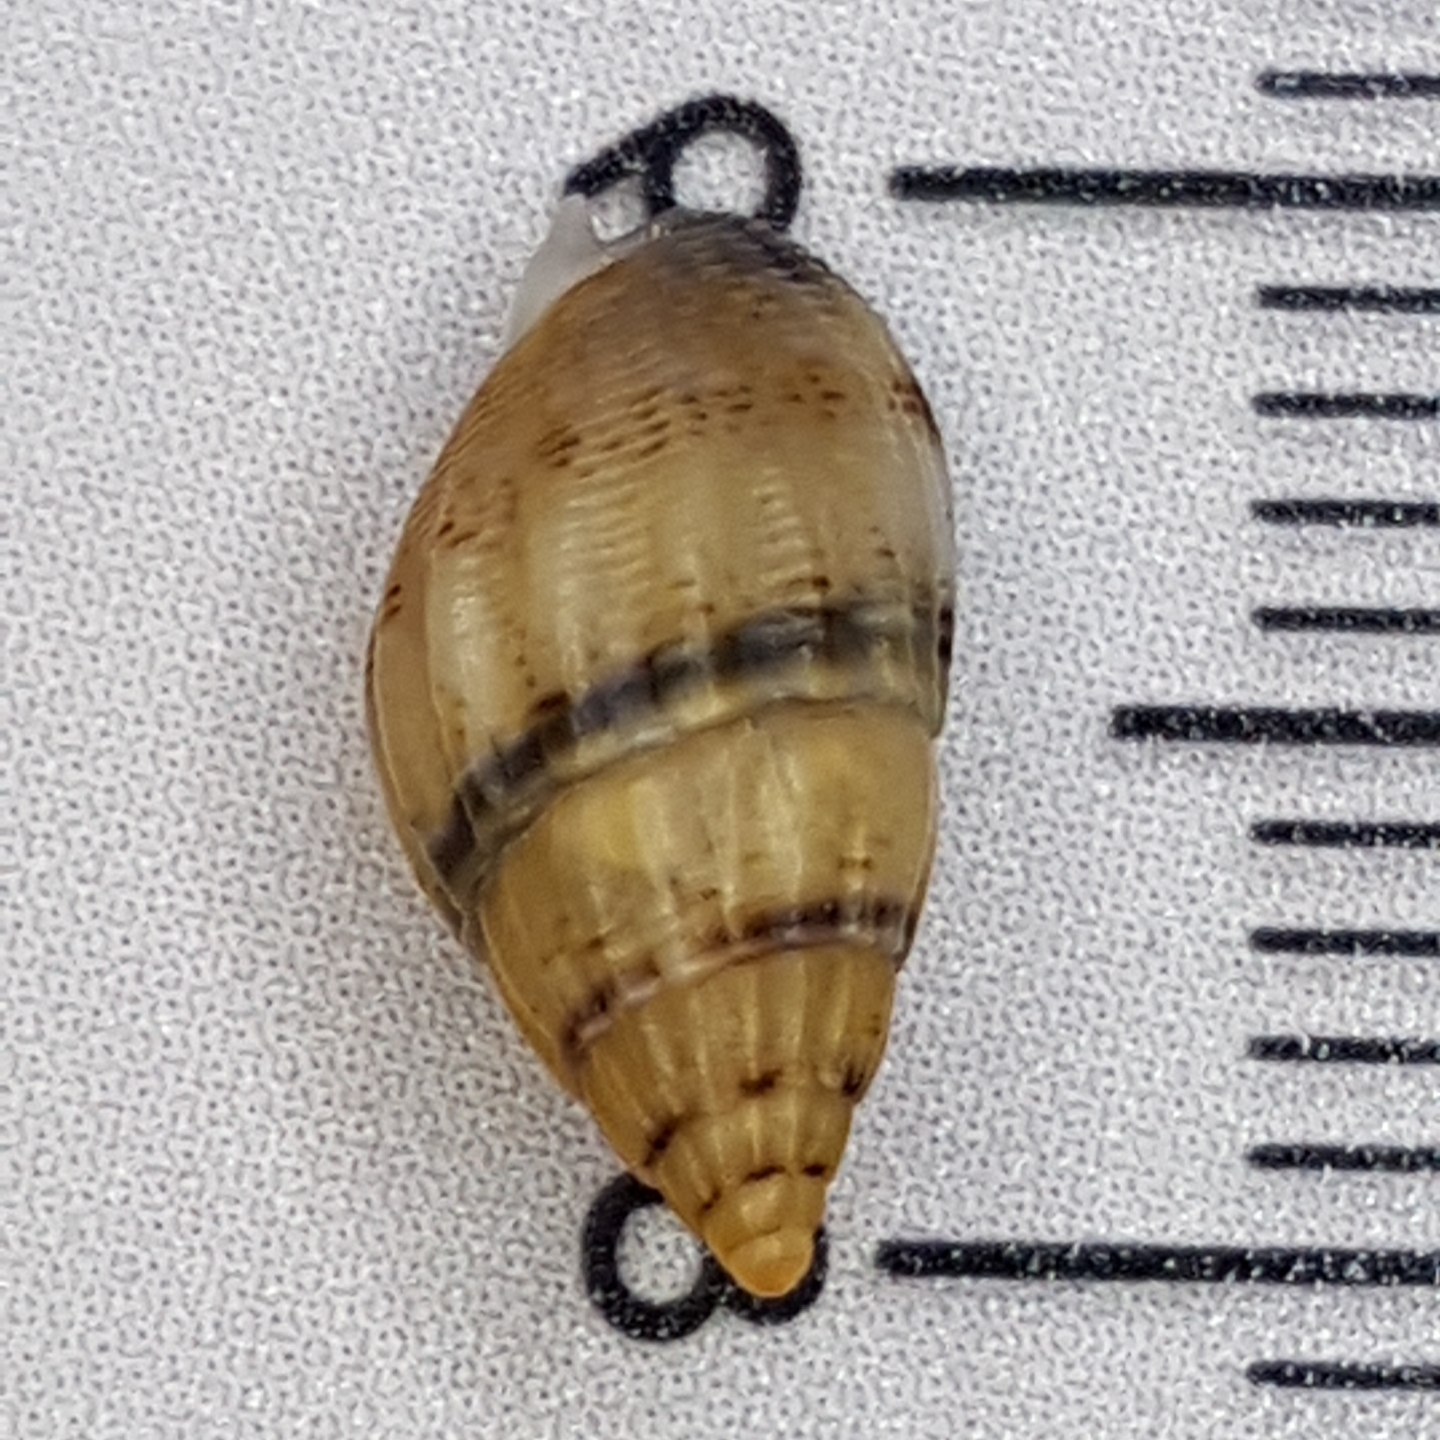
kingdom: Animalia
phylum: Mollusca
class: Gastropoda
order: Neogastropoda
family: Nassariidae
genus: Tritia
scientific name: Tritia cuvierii
